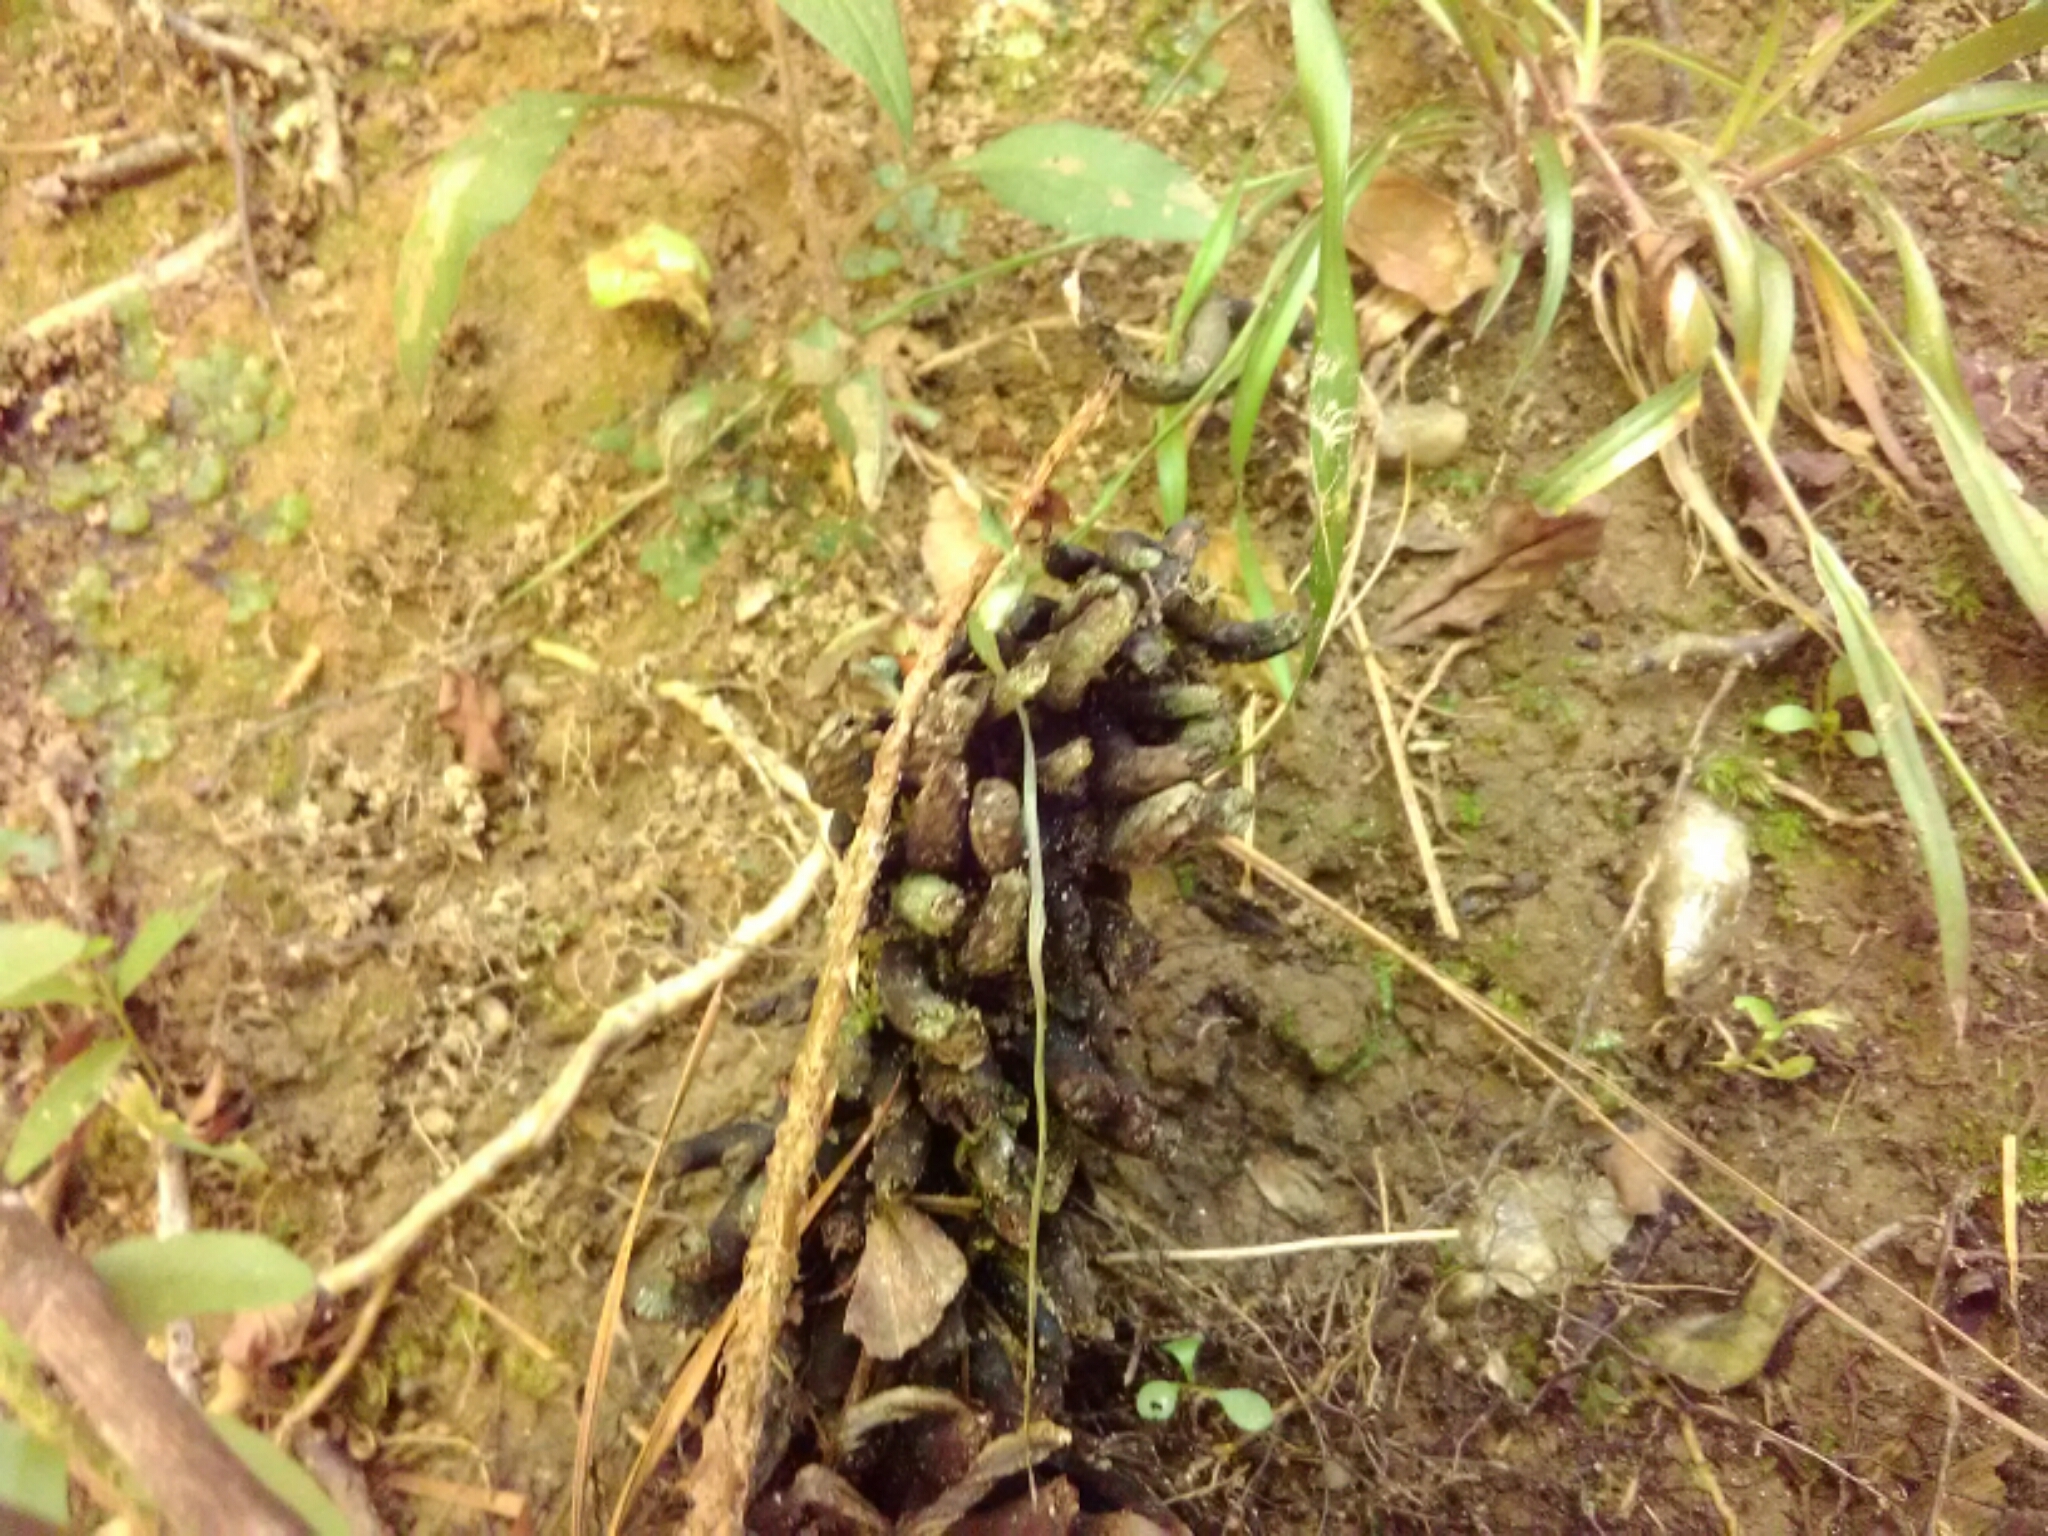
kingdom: Plantae
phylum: Tracheophyta
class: Magnoliopsida
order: Lamiales
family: Orobanchaceae
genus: Conopholis
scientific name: Conopholis americana
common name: American cancer-root
